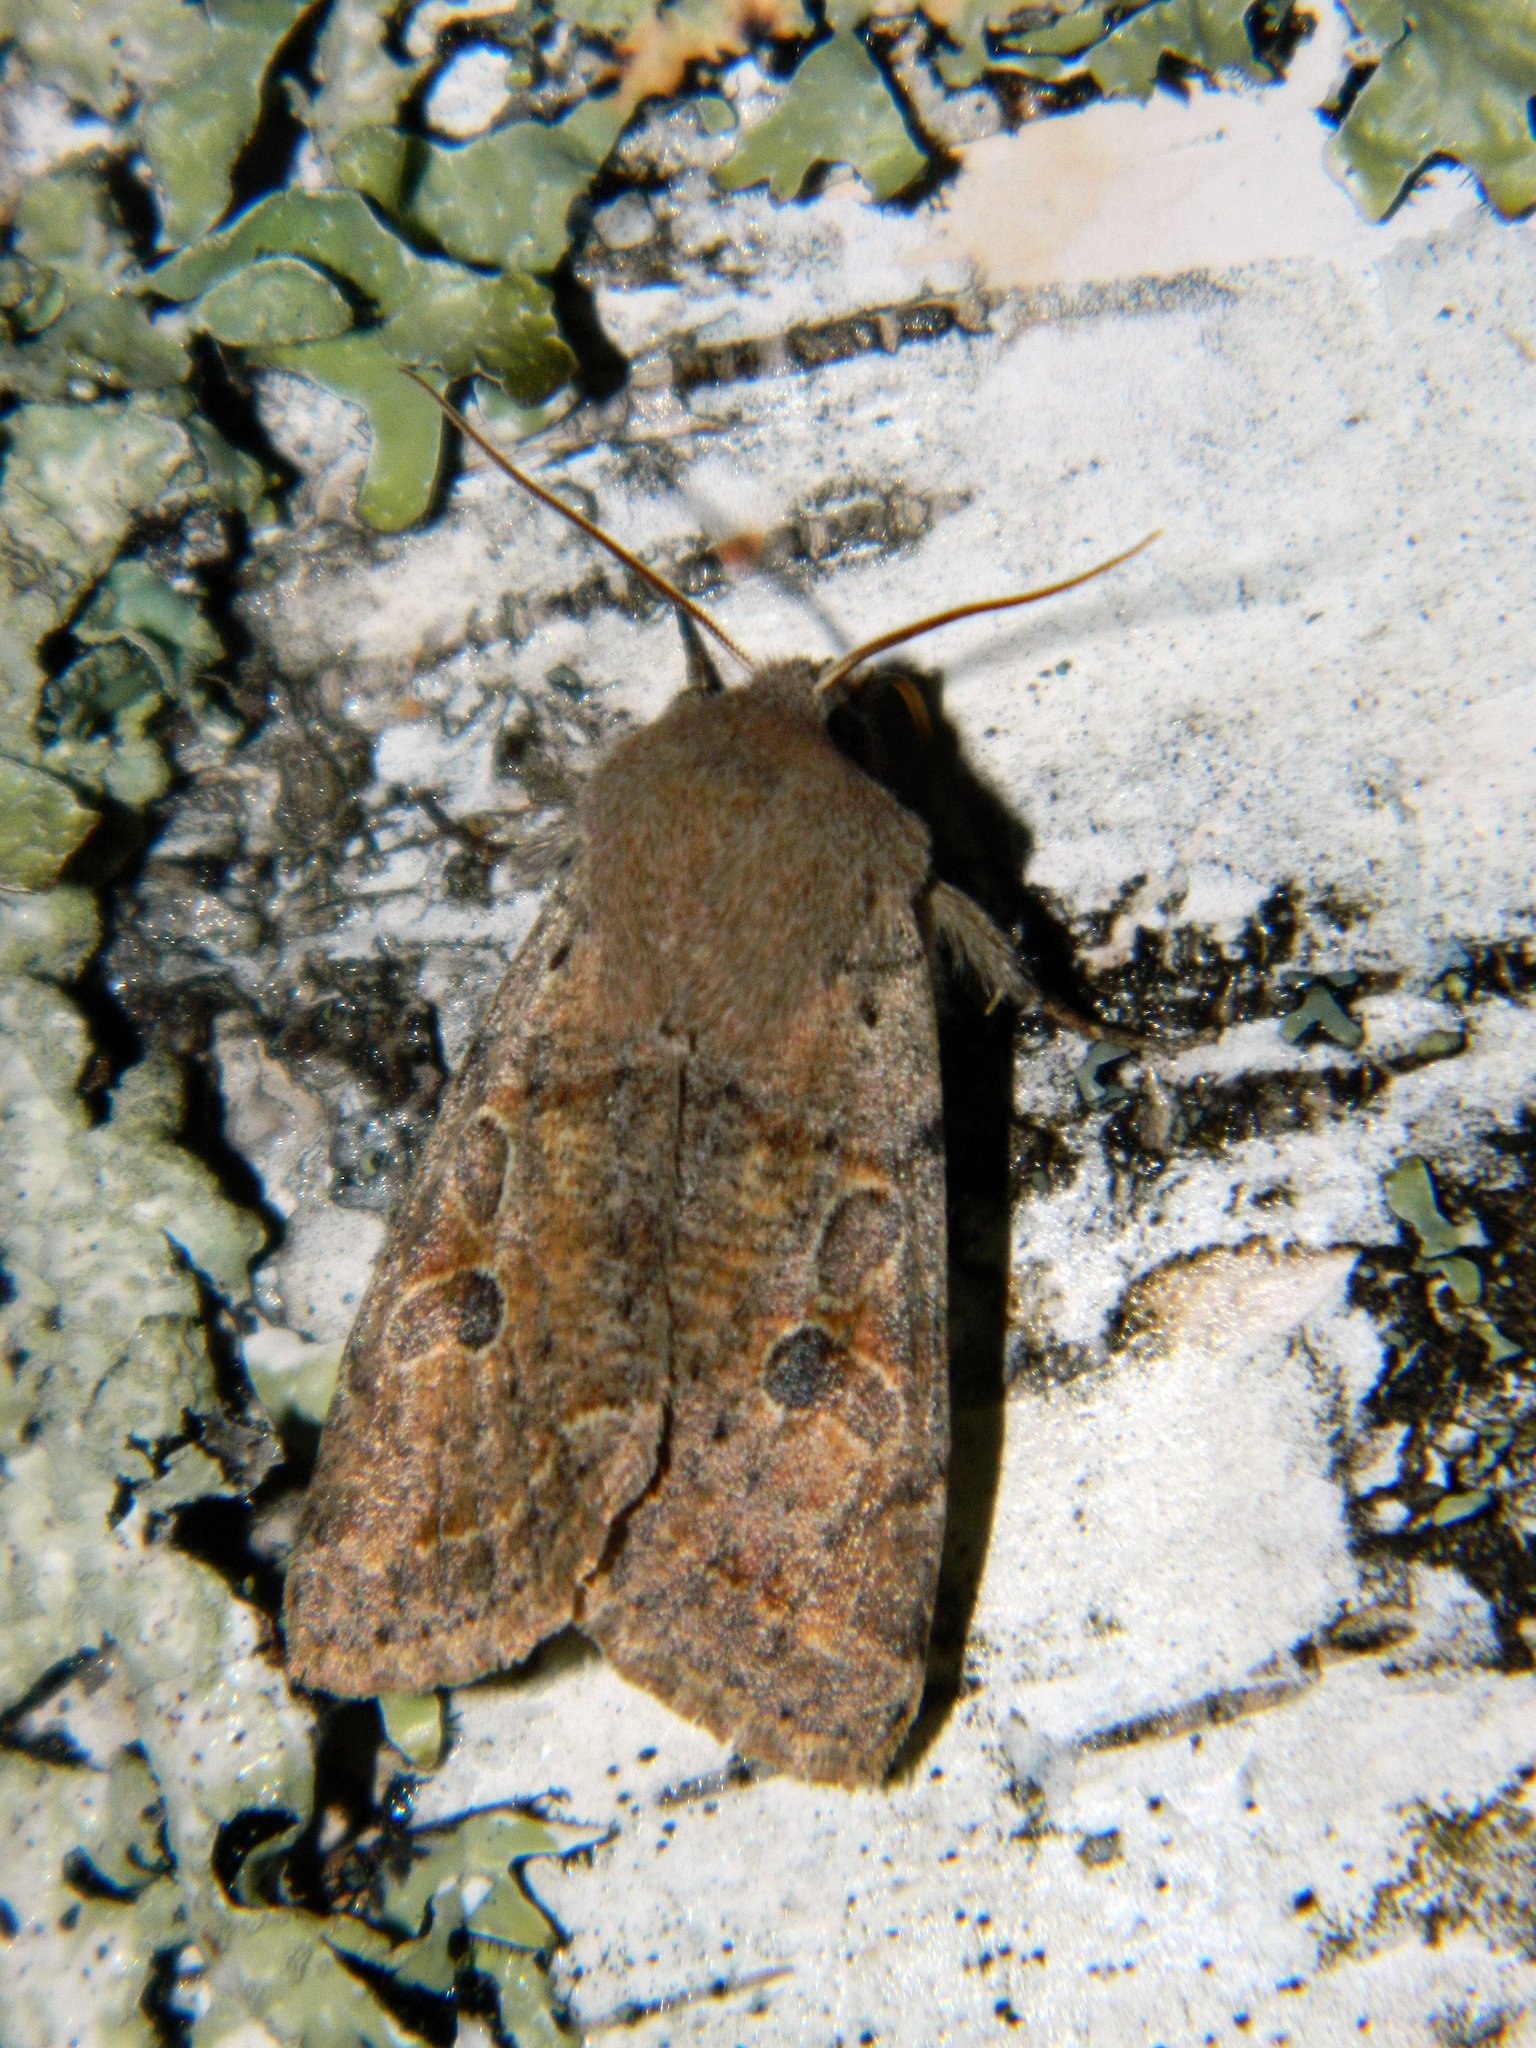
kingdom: Animalia
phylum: Arthropoda
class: Insecta
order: Lepidoptera
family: Noctuidae
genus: Orthosia
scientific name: Orthosia hibisci
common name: Green fruitworm
